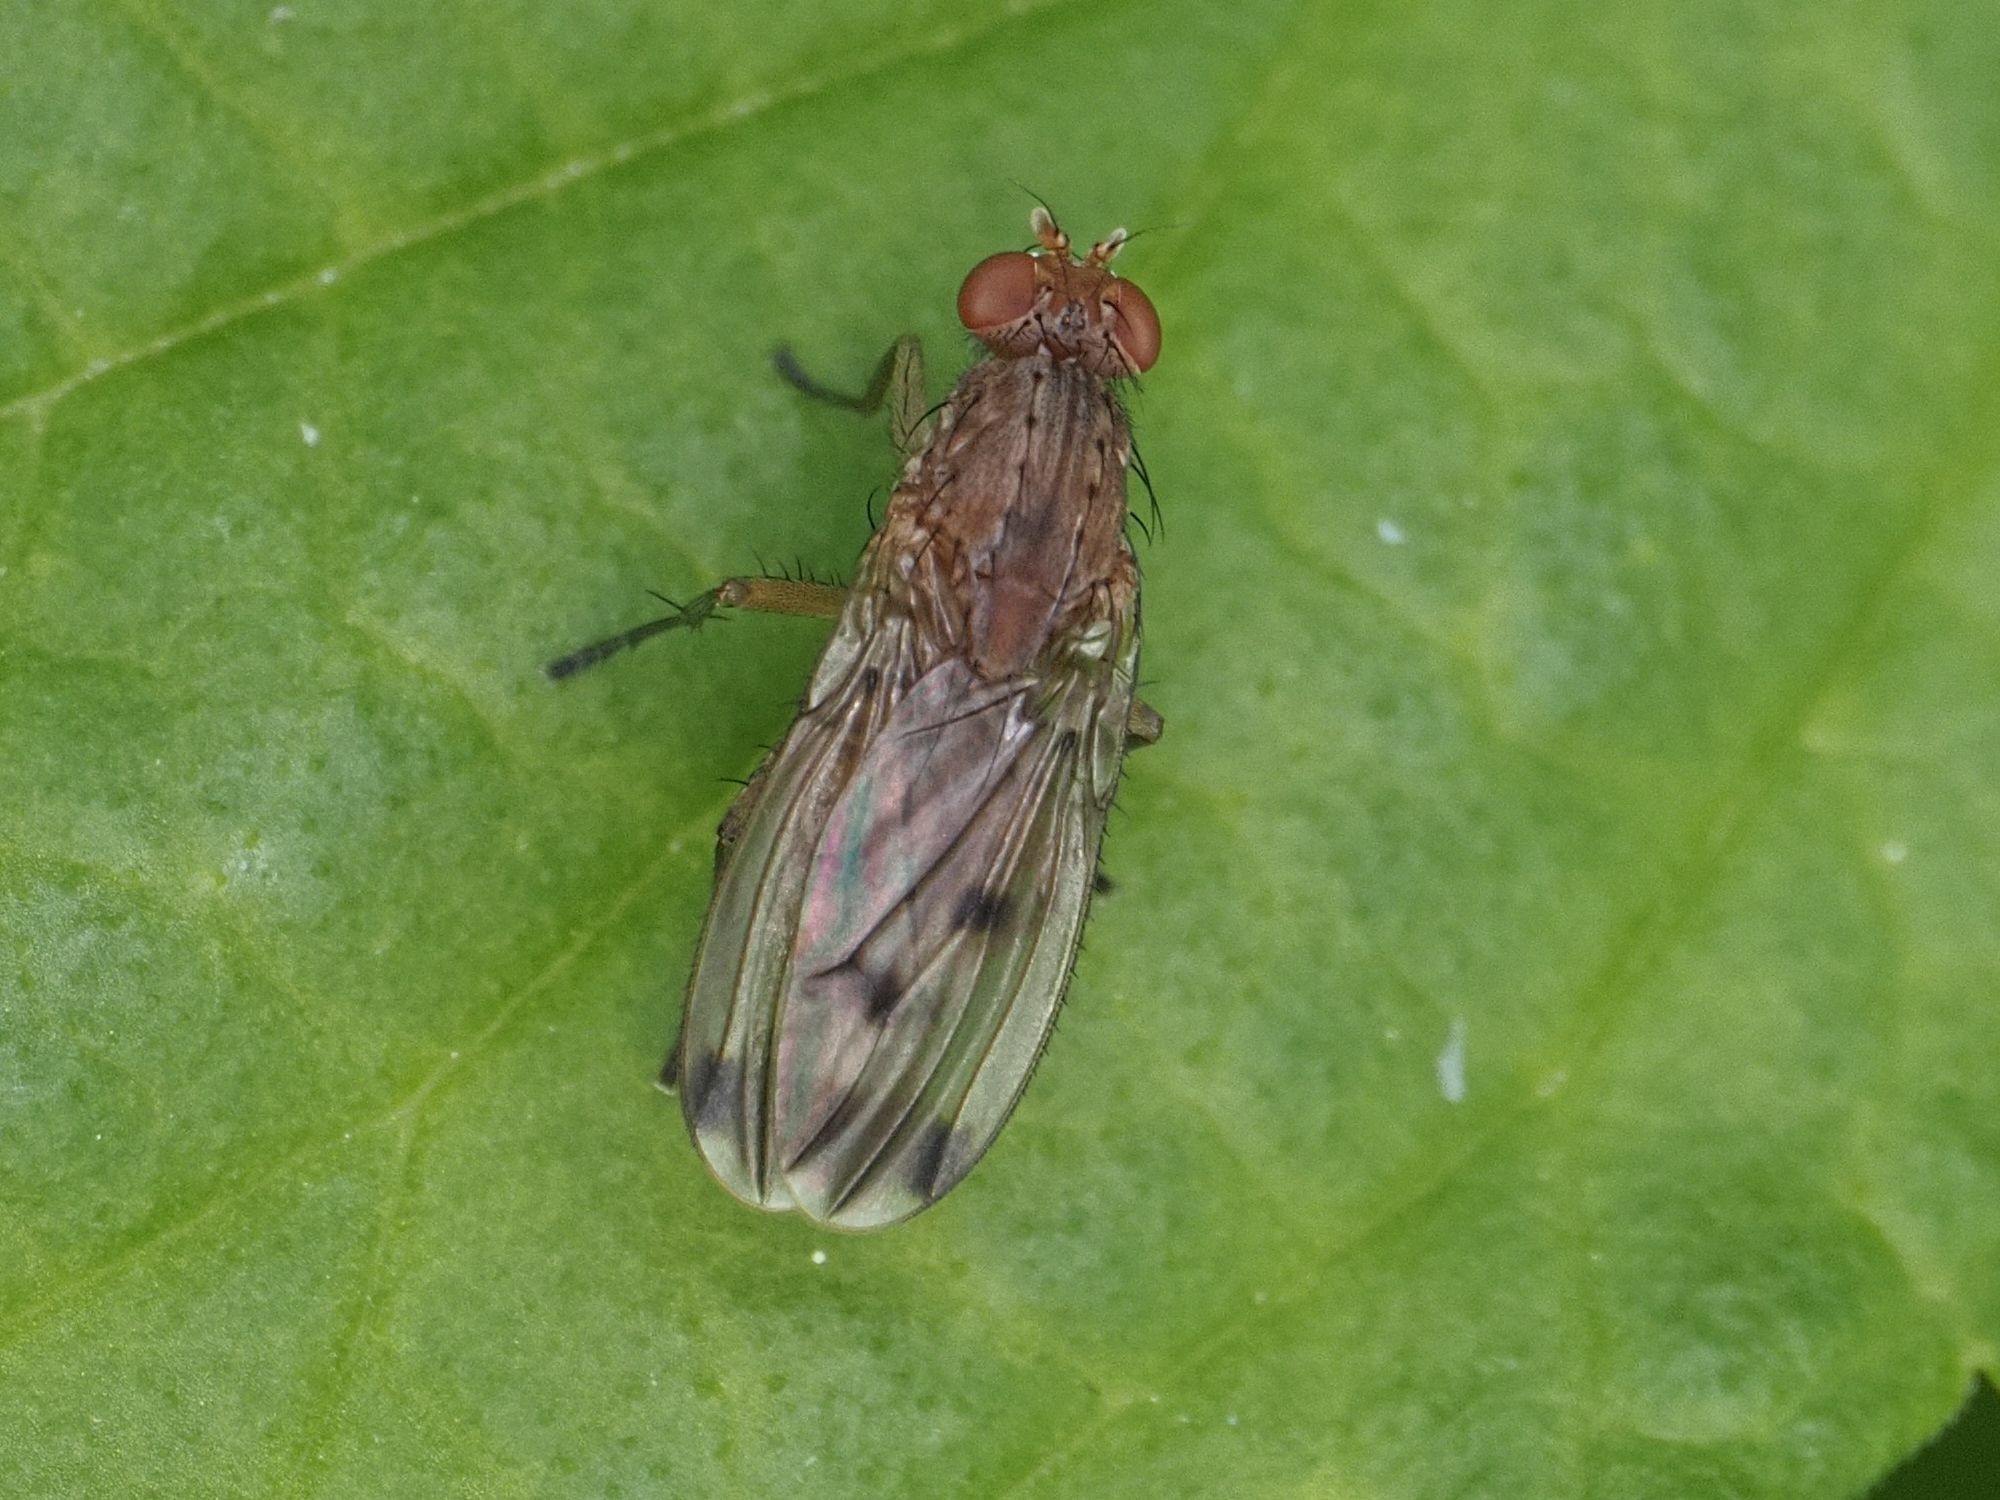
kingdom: Animalia
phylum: Arthropoda
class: Insecta
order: Diptera
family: Heleomyzidae
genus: Suillia
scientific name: Suillia variegata
